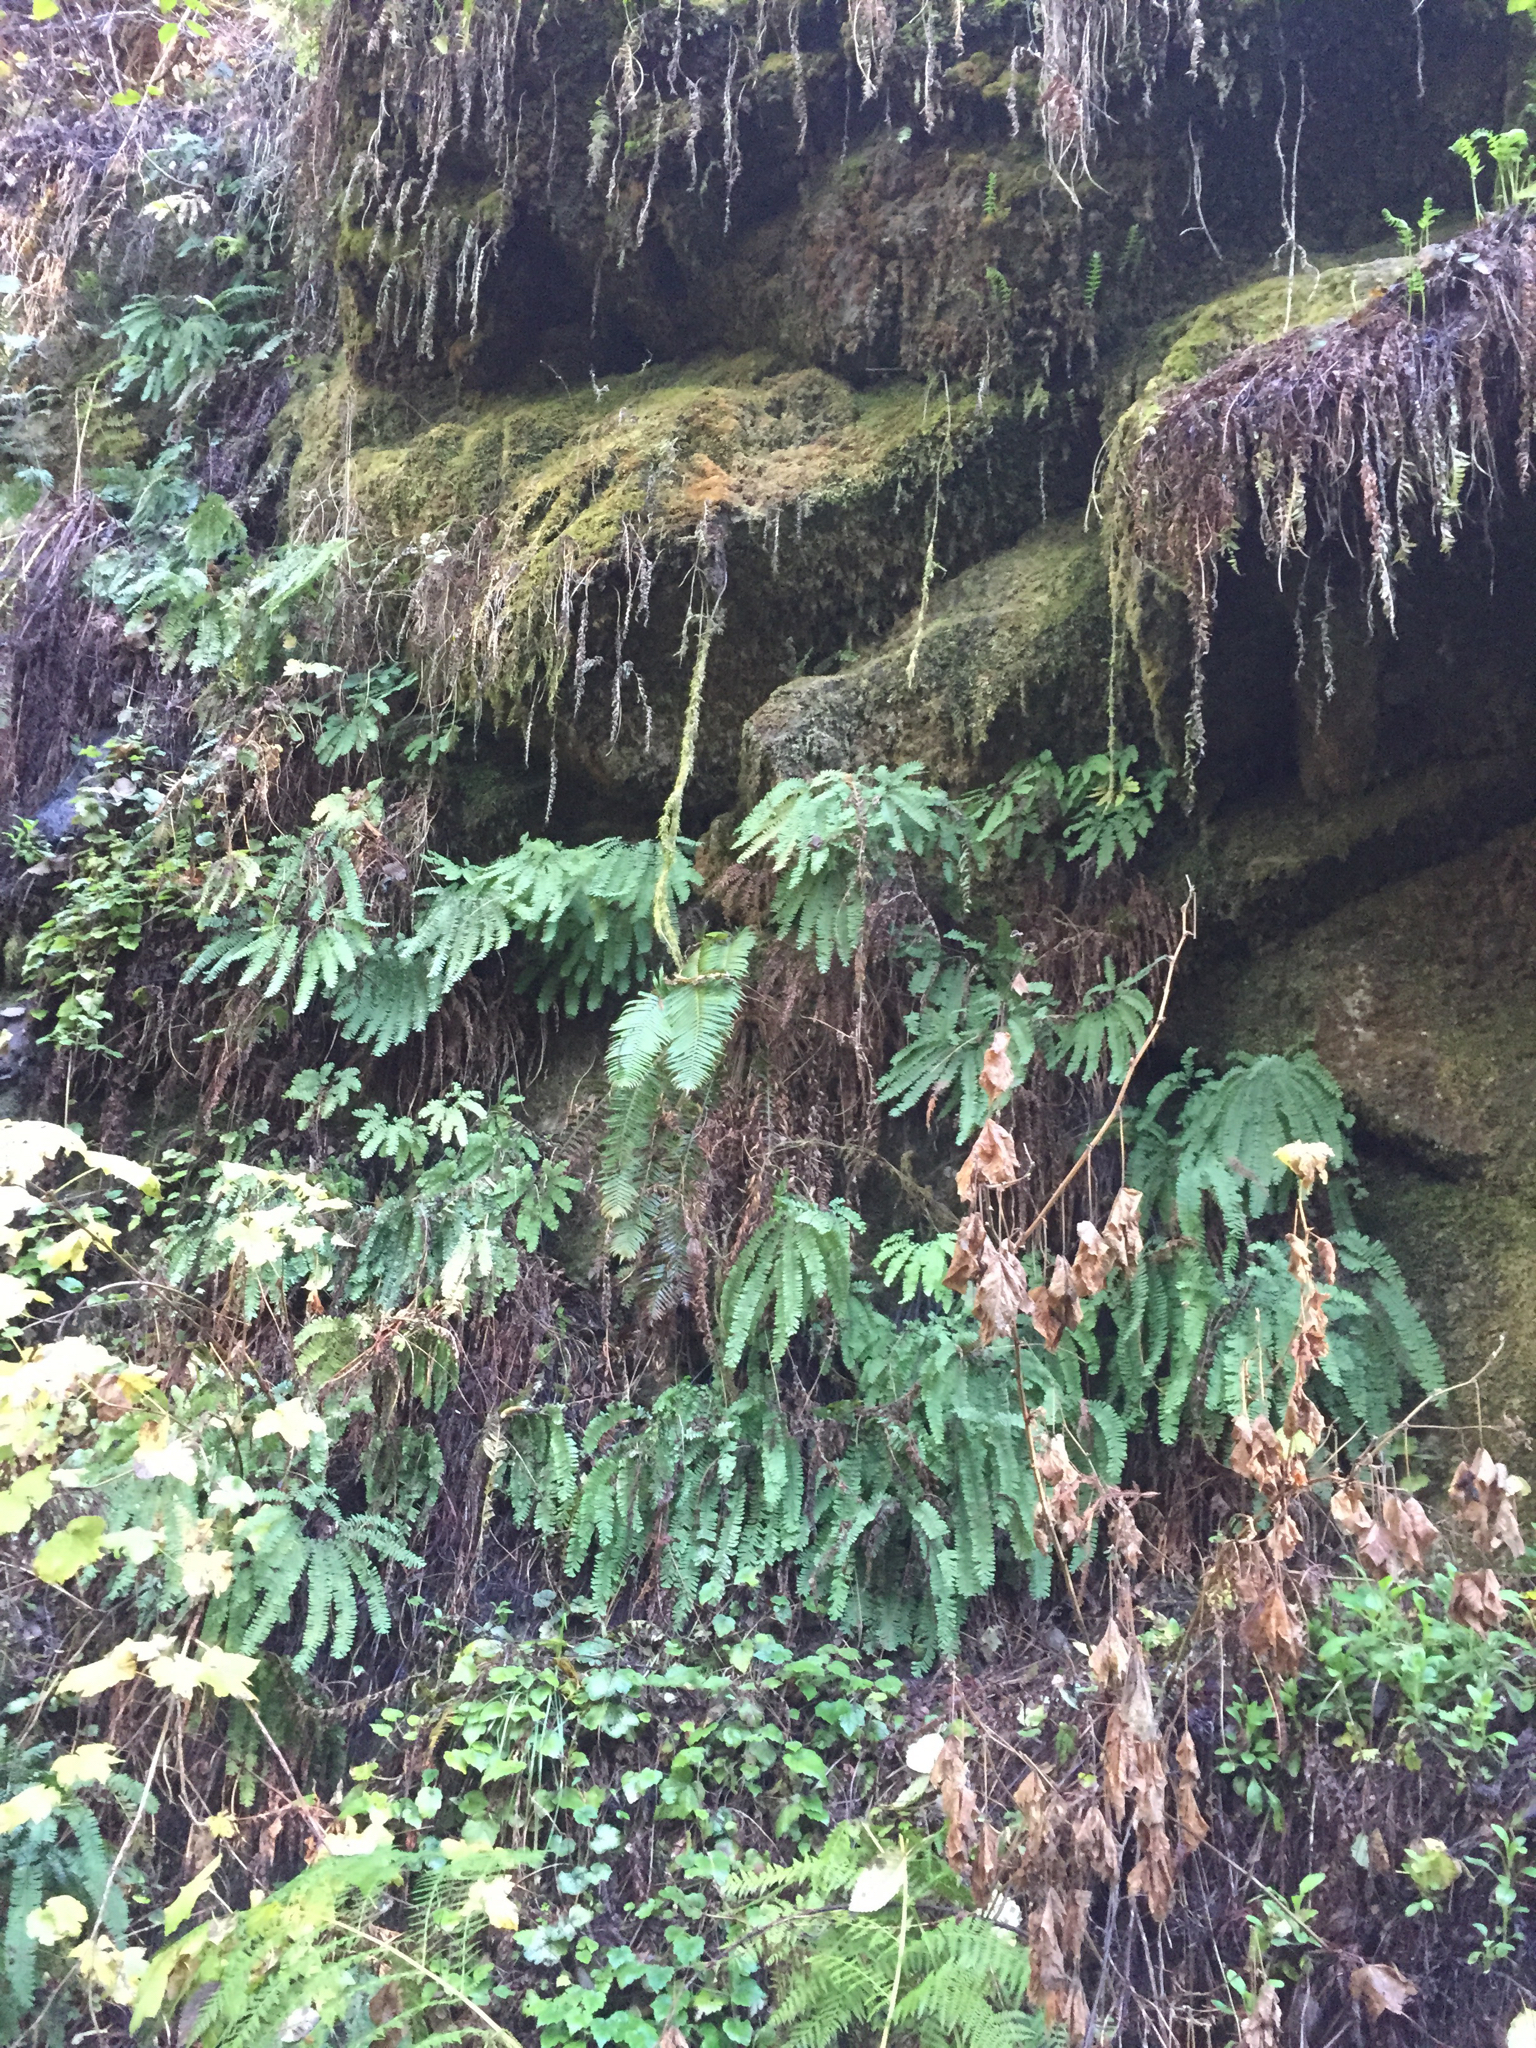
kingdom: Plantae
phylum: Tracheophyta
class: Polypodiopsida
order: Polypodiales
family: Pteridaceae
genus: Adiantum
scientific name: Adiantum aleuticum
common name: Aleutian maidenhair fern
